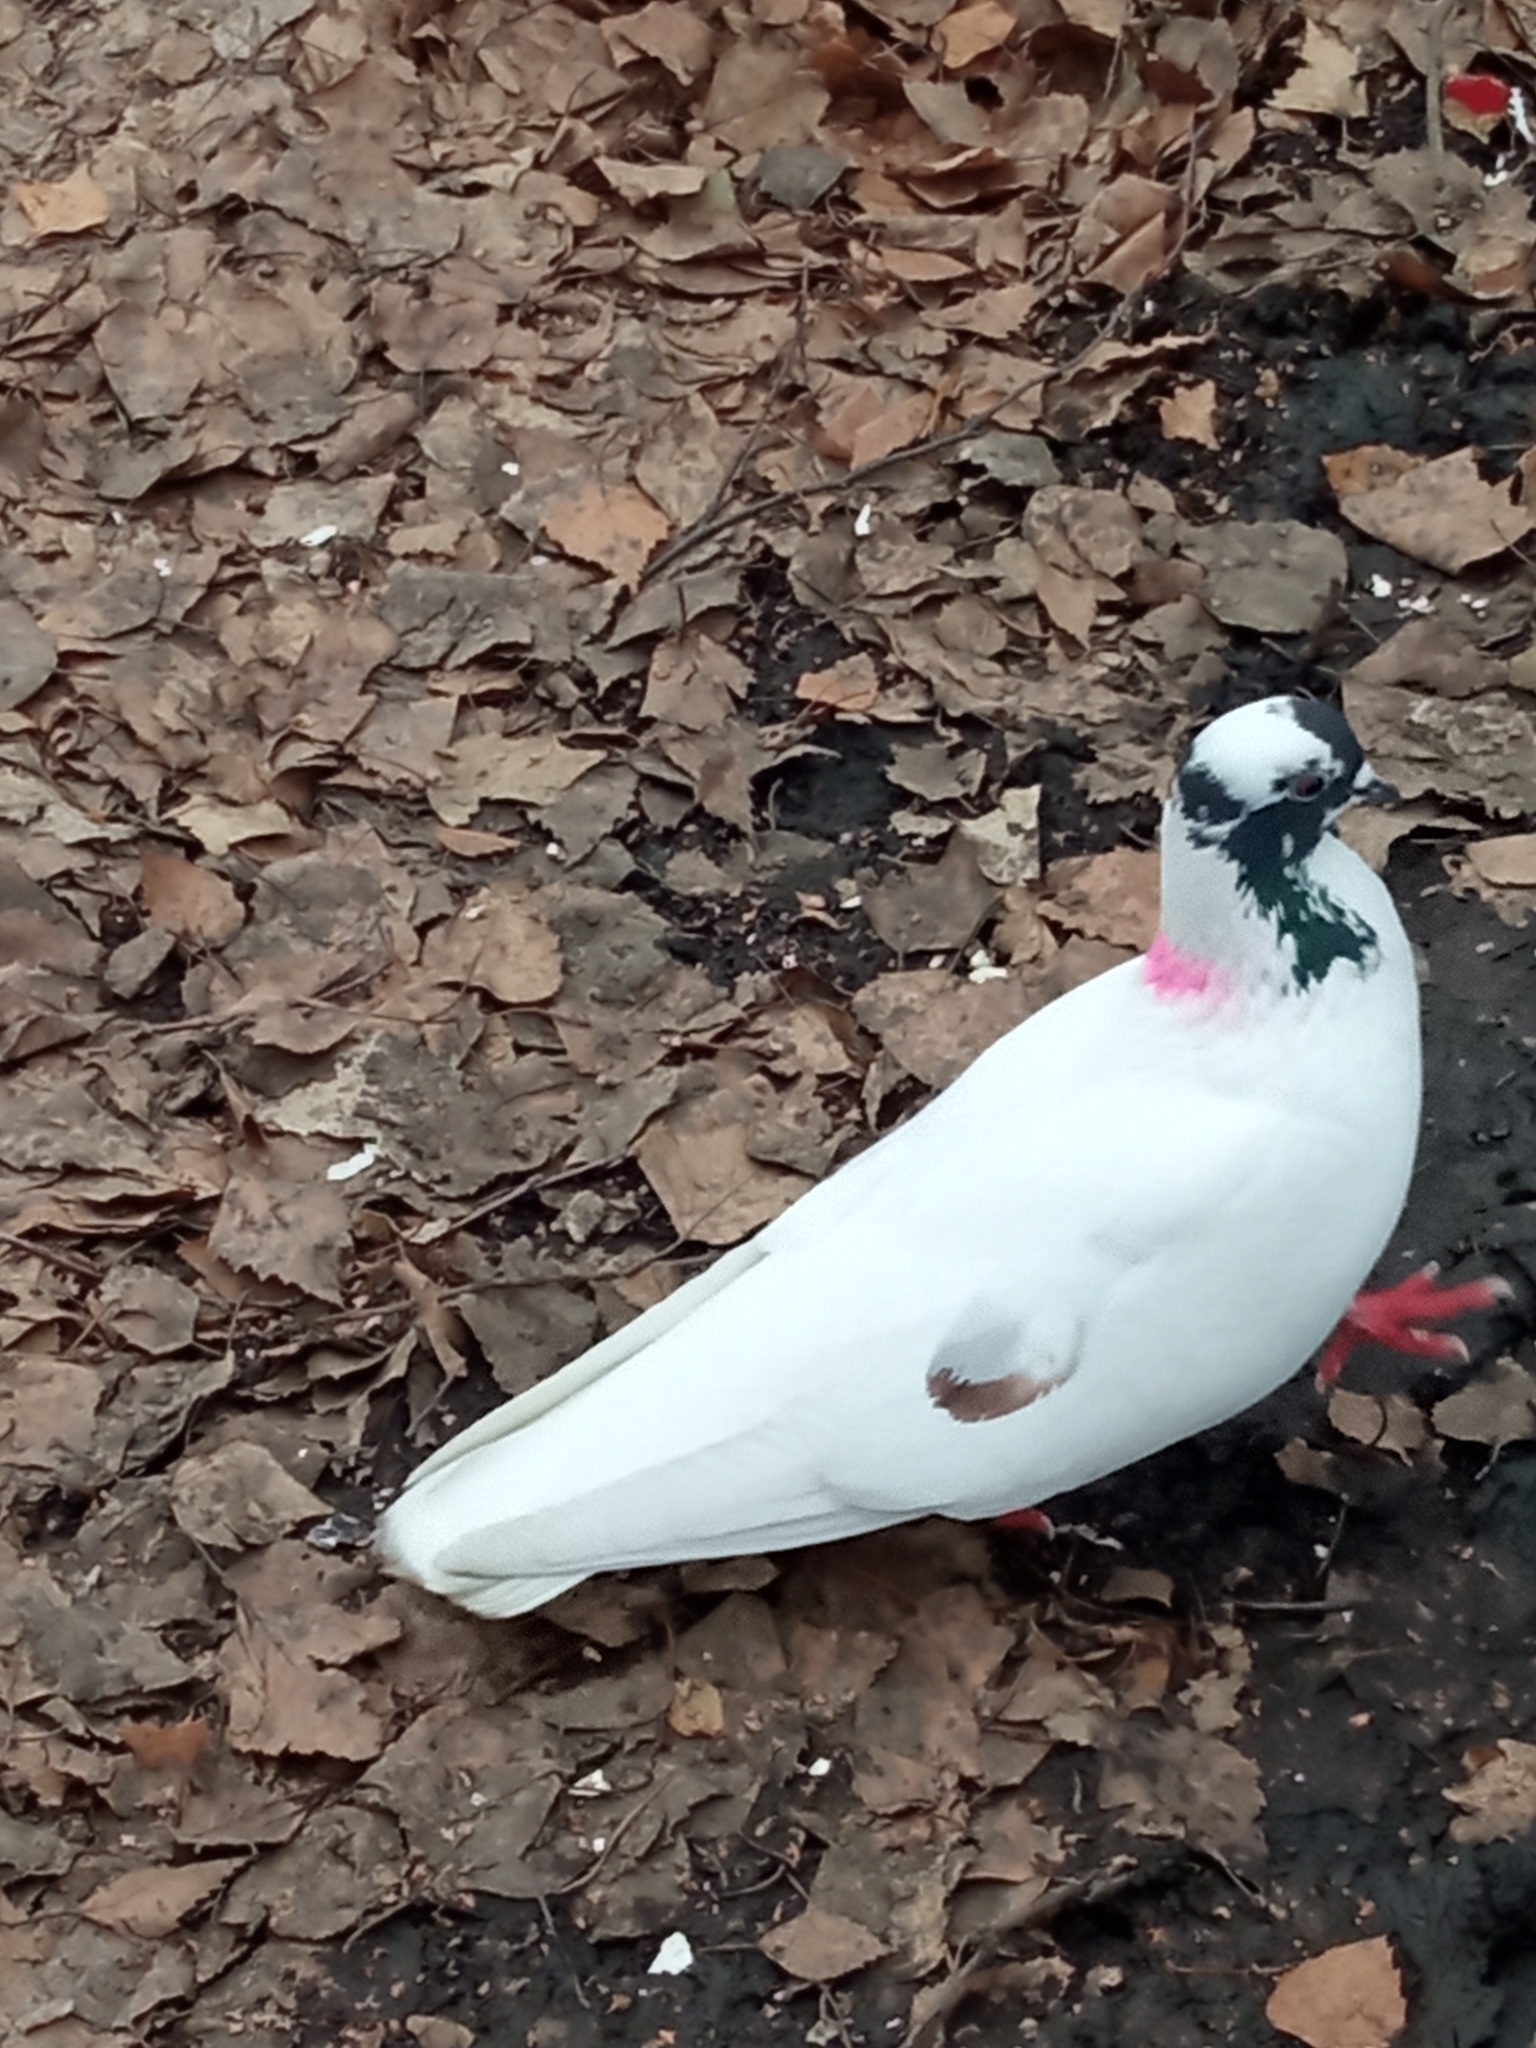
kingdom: Animalia
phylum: Chordata
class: Aves
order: Columbiformes
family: Columbidae
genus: Columba
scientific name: Columba livia
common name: Rock pigeon
